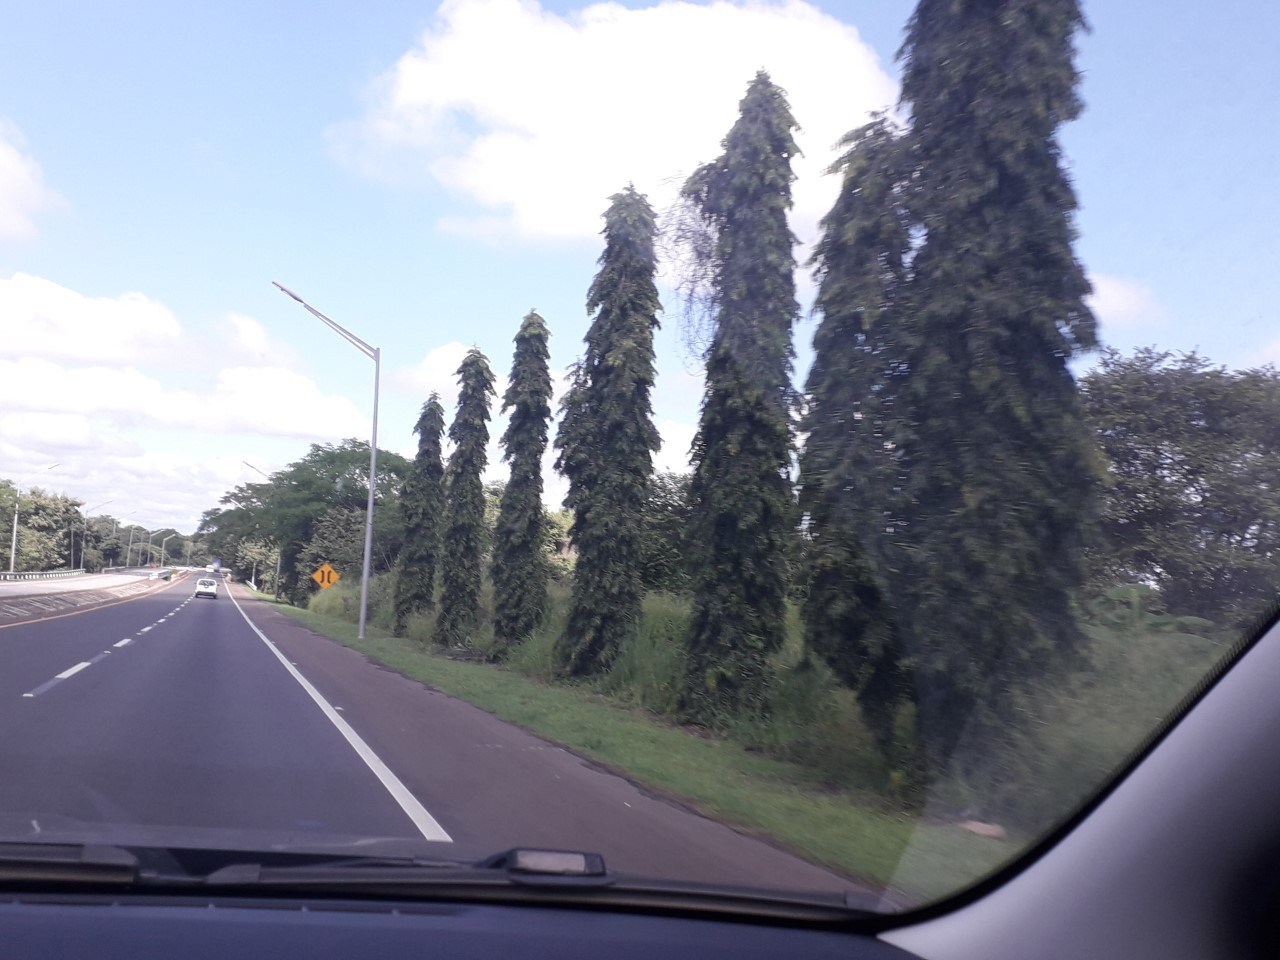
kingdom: Plantae
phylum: Tracheophyta
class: Magnoliopsida
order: Magnoliales
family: Annonaceae
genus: Polyalthia
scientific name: Polyalthia longifolia
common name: Cemetery-tree
